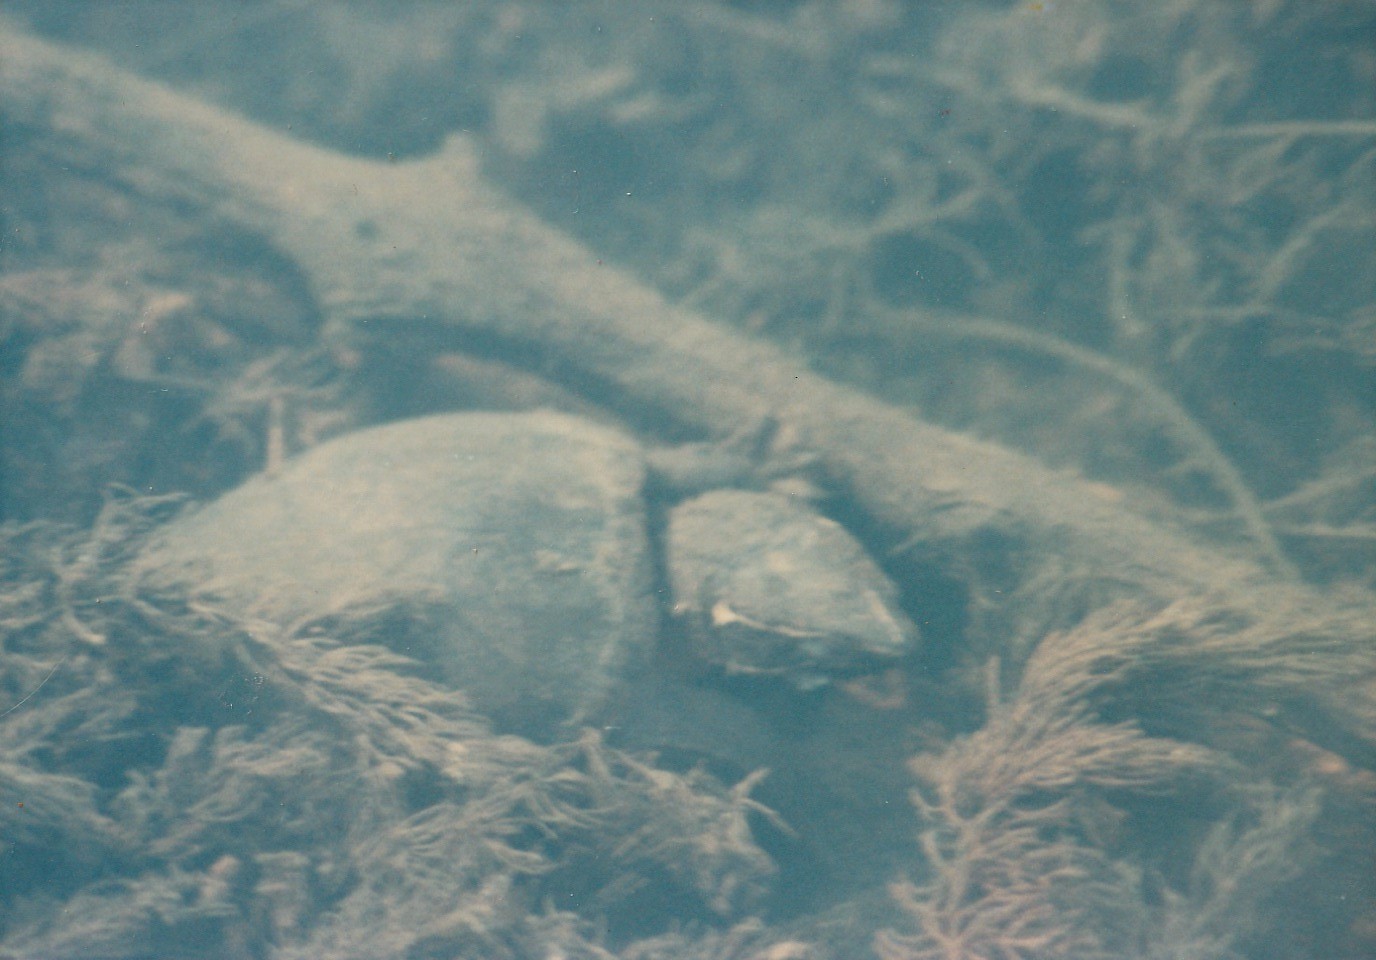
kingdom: Animalia
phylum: Chordata
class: Testudines
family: Kinosternidae
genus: Sternotherus
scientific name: Sternotherus odoratus
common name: Common musk turtle
